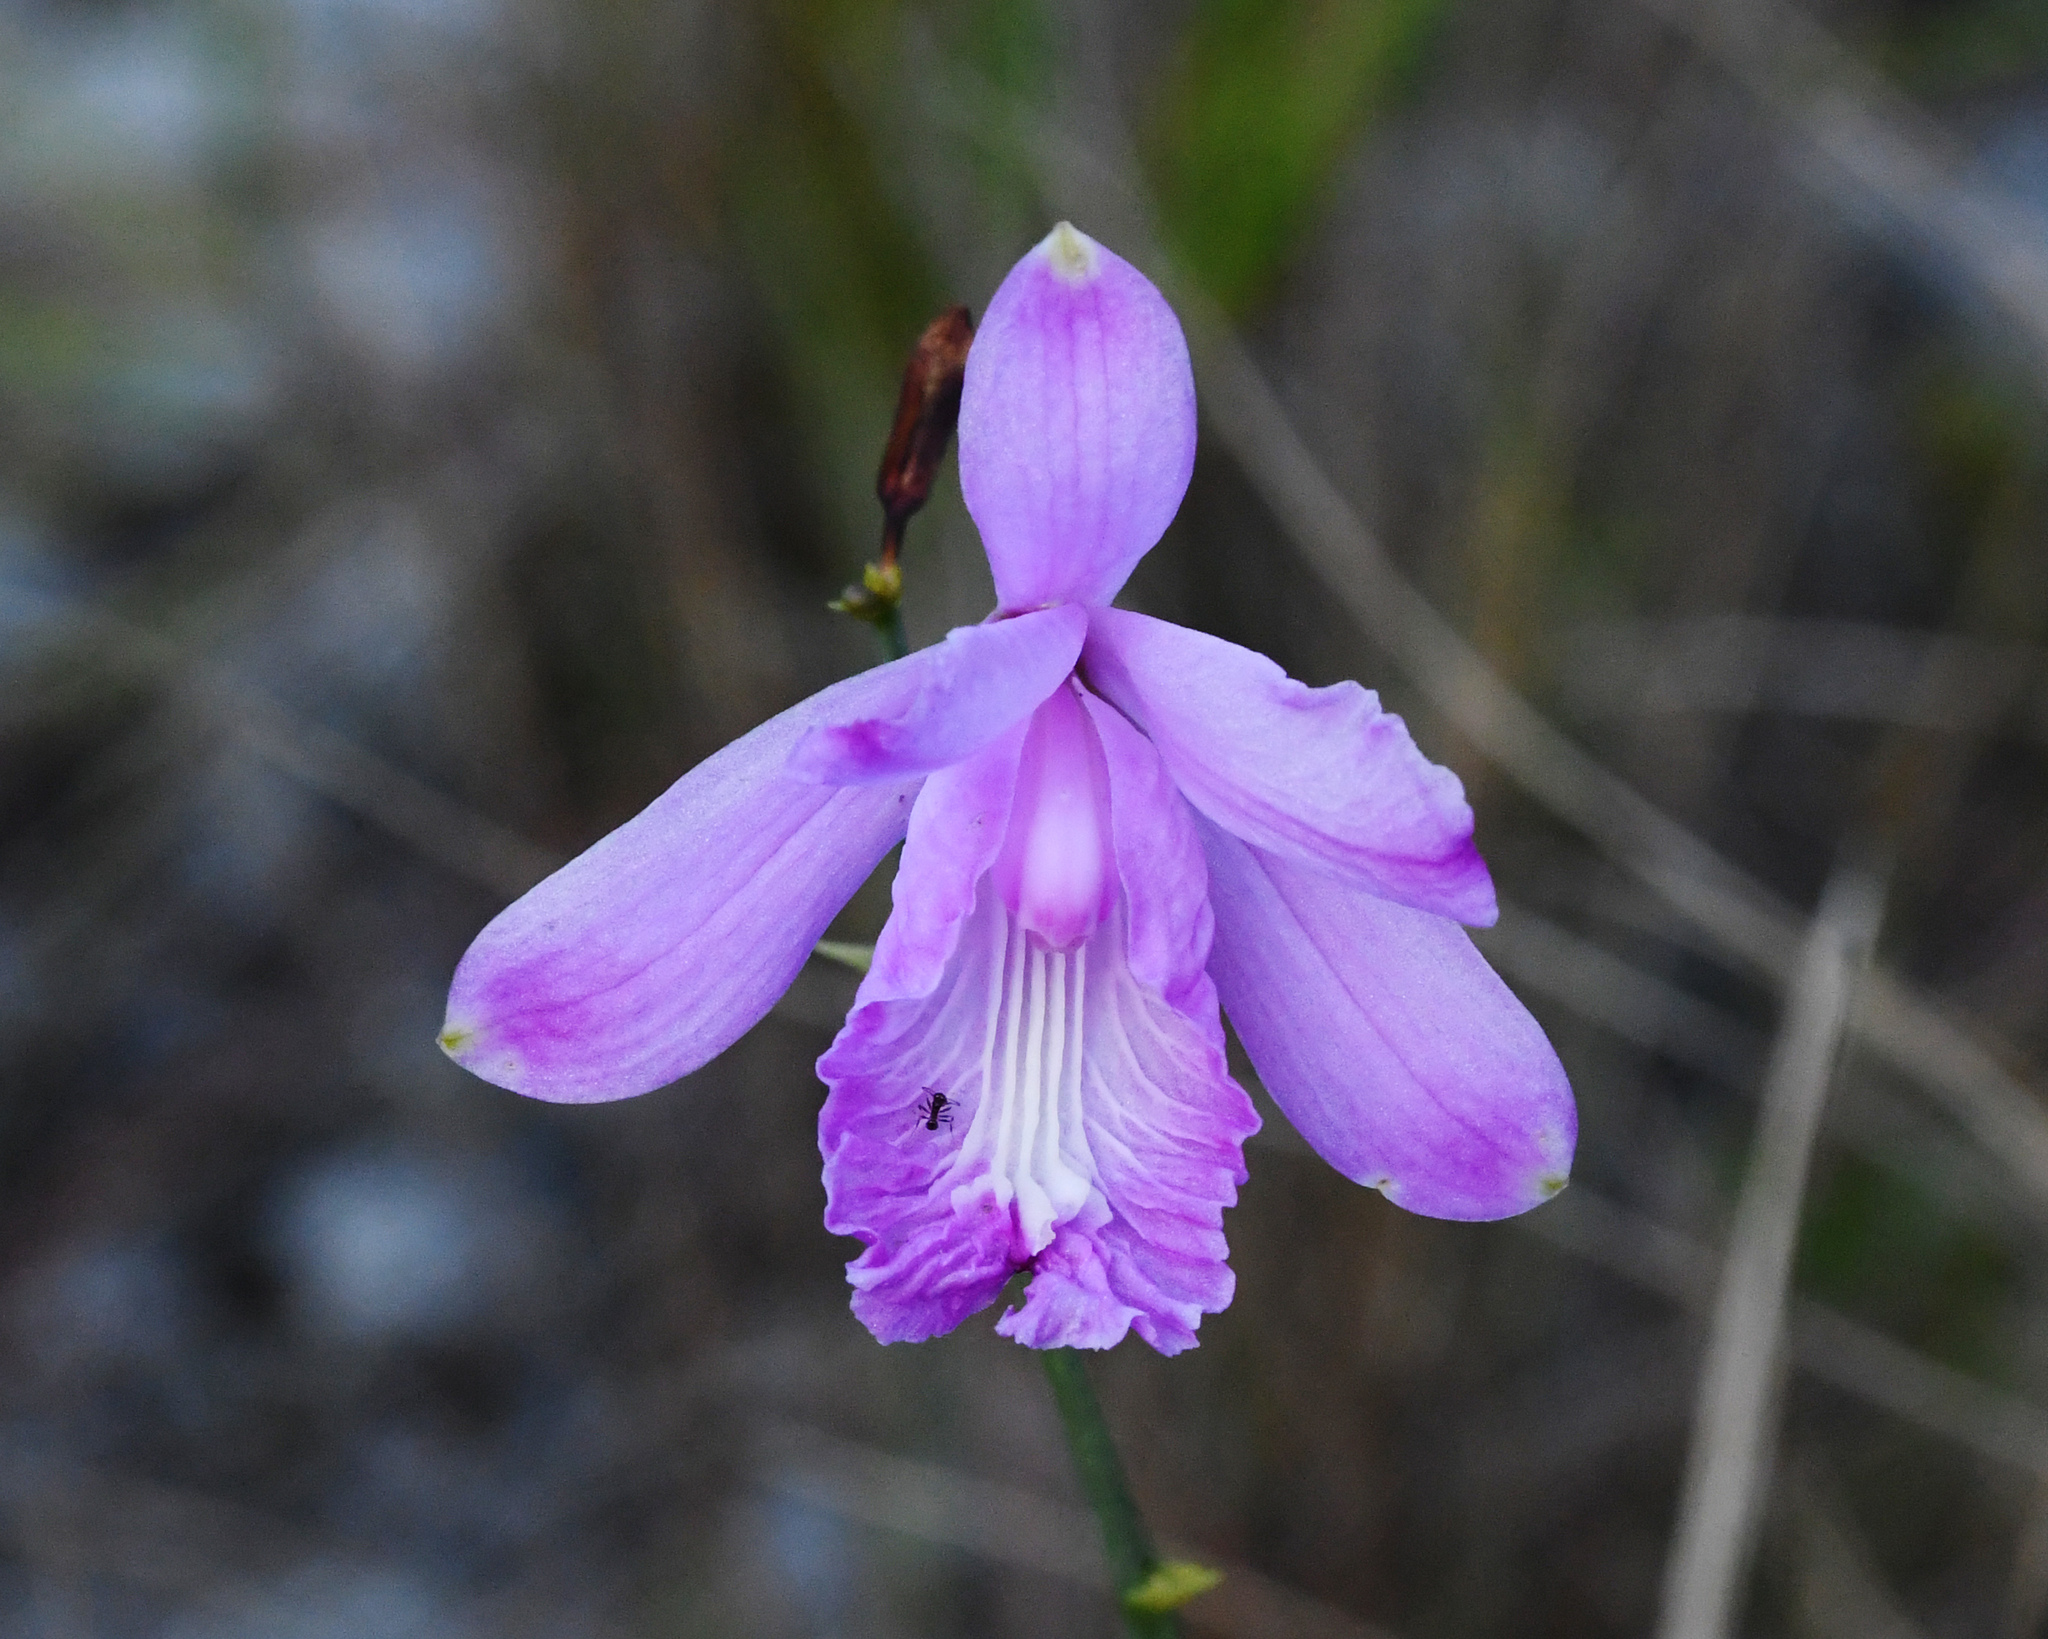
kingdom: Plantae
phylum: Tracheophyta
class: Liliopsida
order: Asparagales
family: Orchidaceae
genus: Bletia
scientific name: Bletia patula
